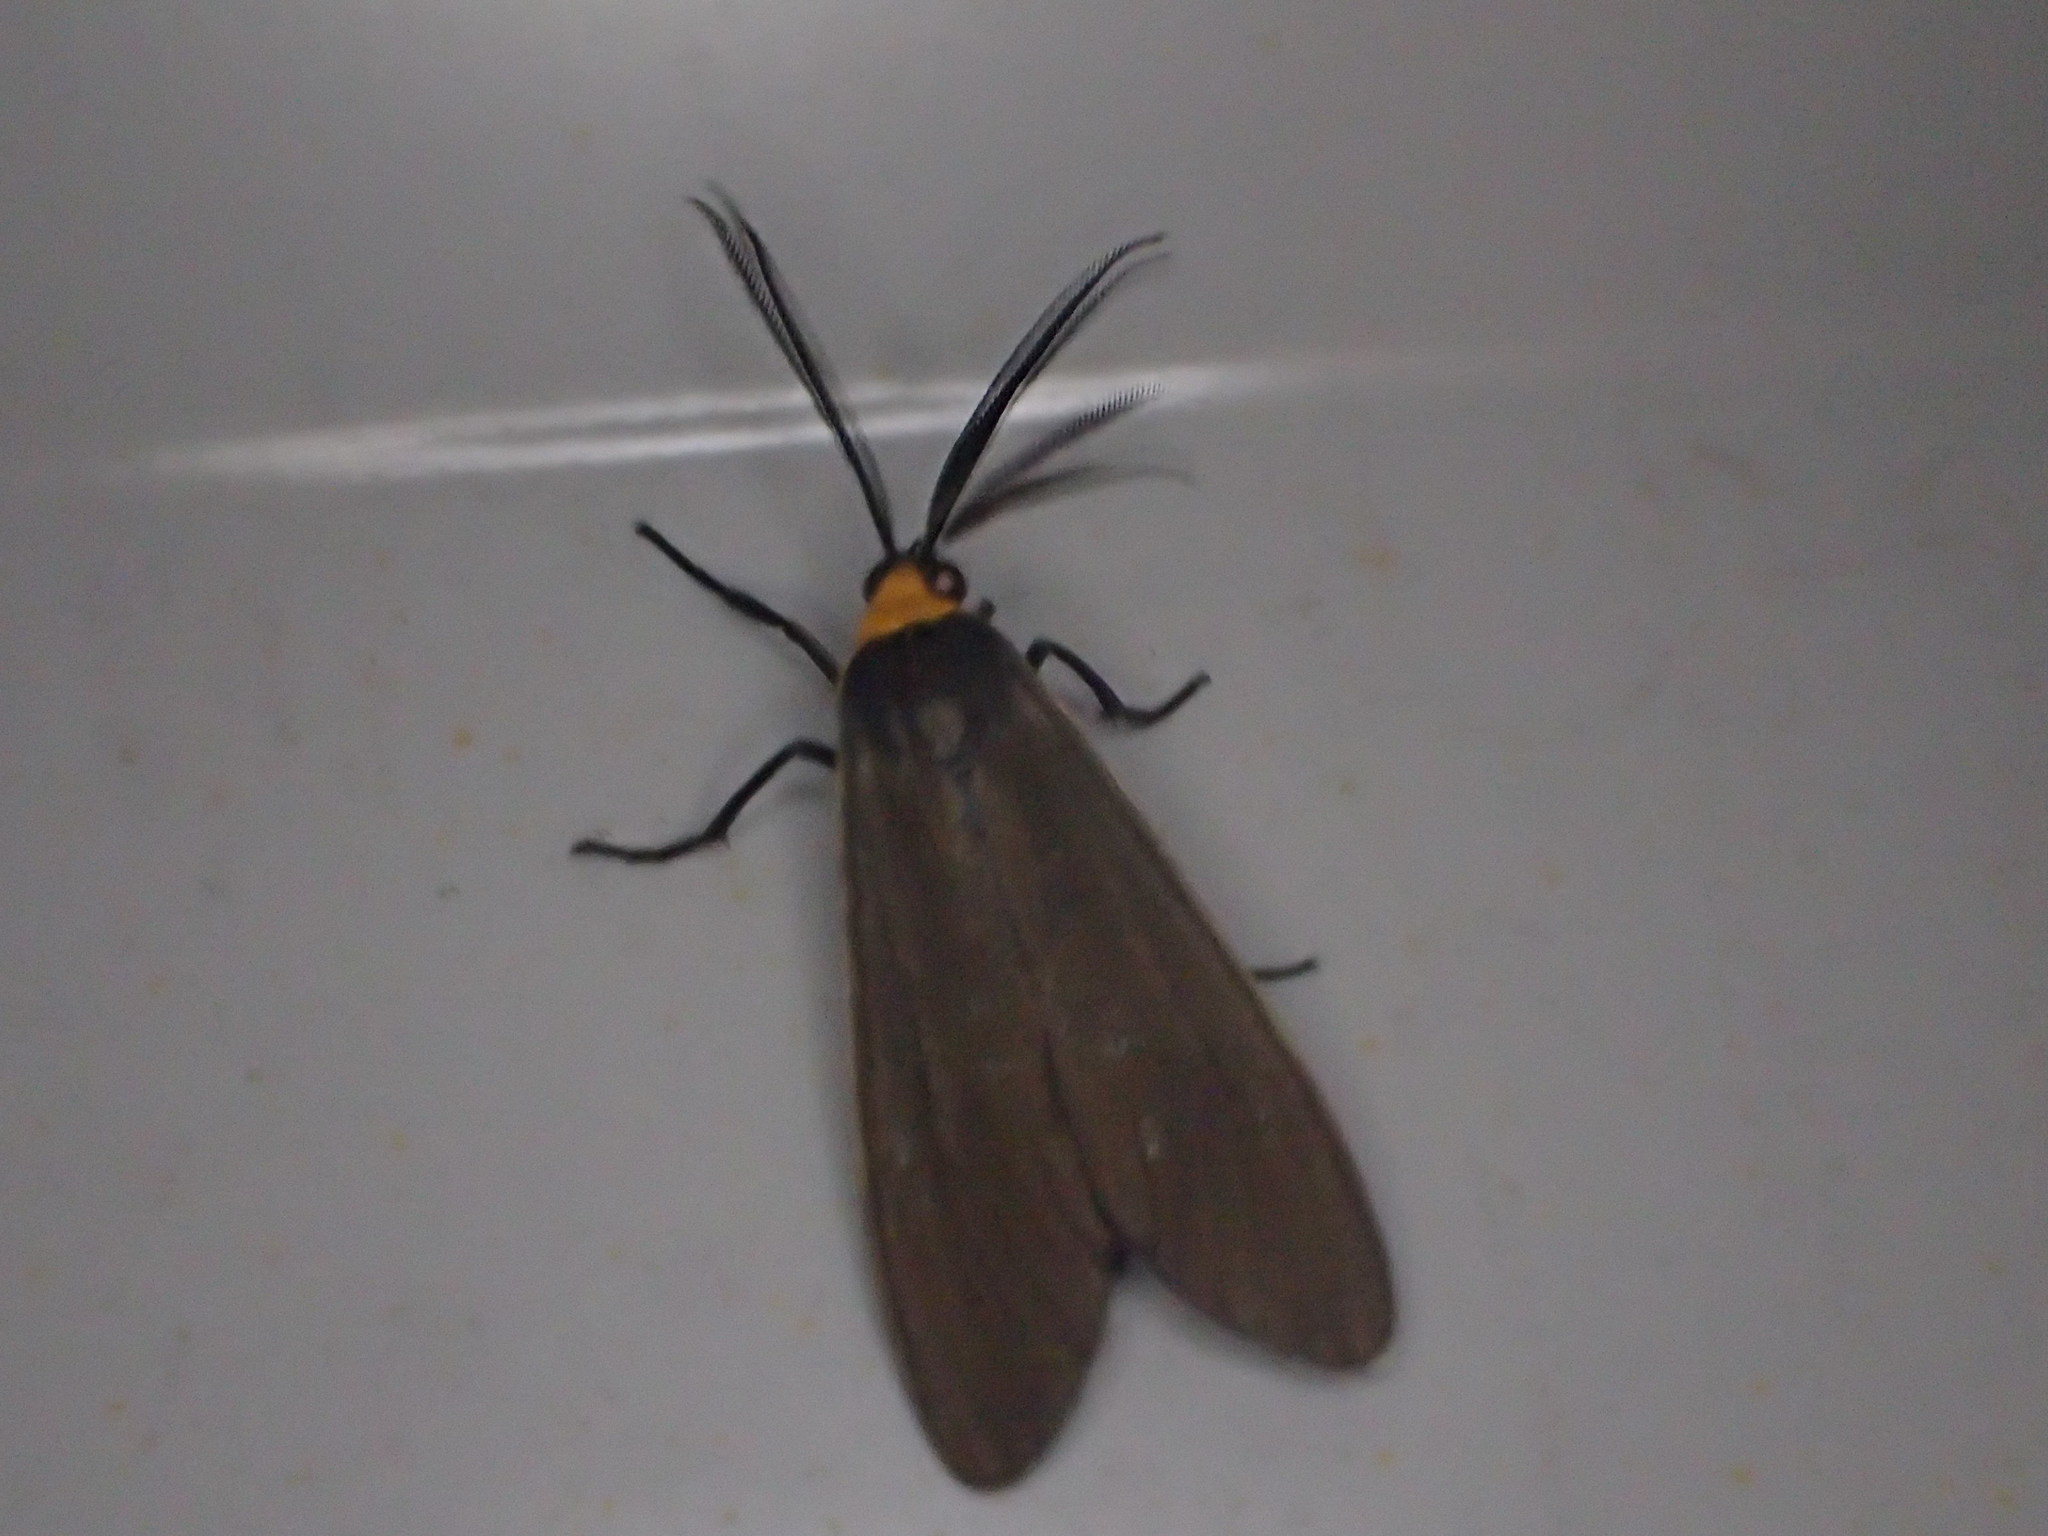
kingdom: Animalia
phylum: Arthropoda
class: Insecta
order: Lepidoptera
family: Erebidae
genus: Cisseps
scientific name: Cisseps fulvicollis
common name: Yellow-collared scape moth
